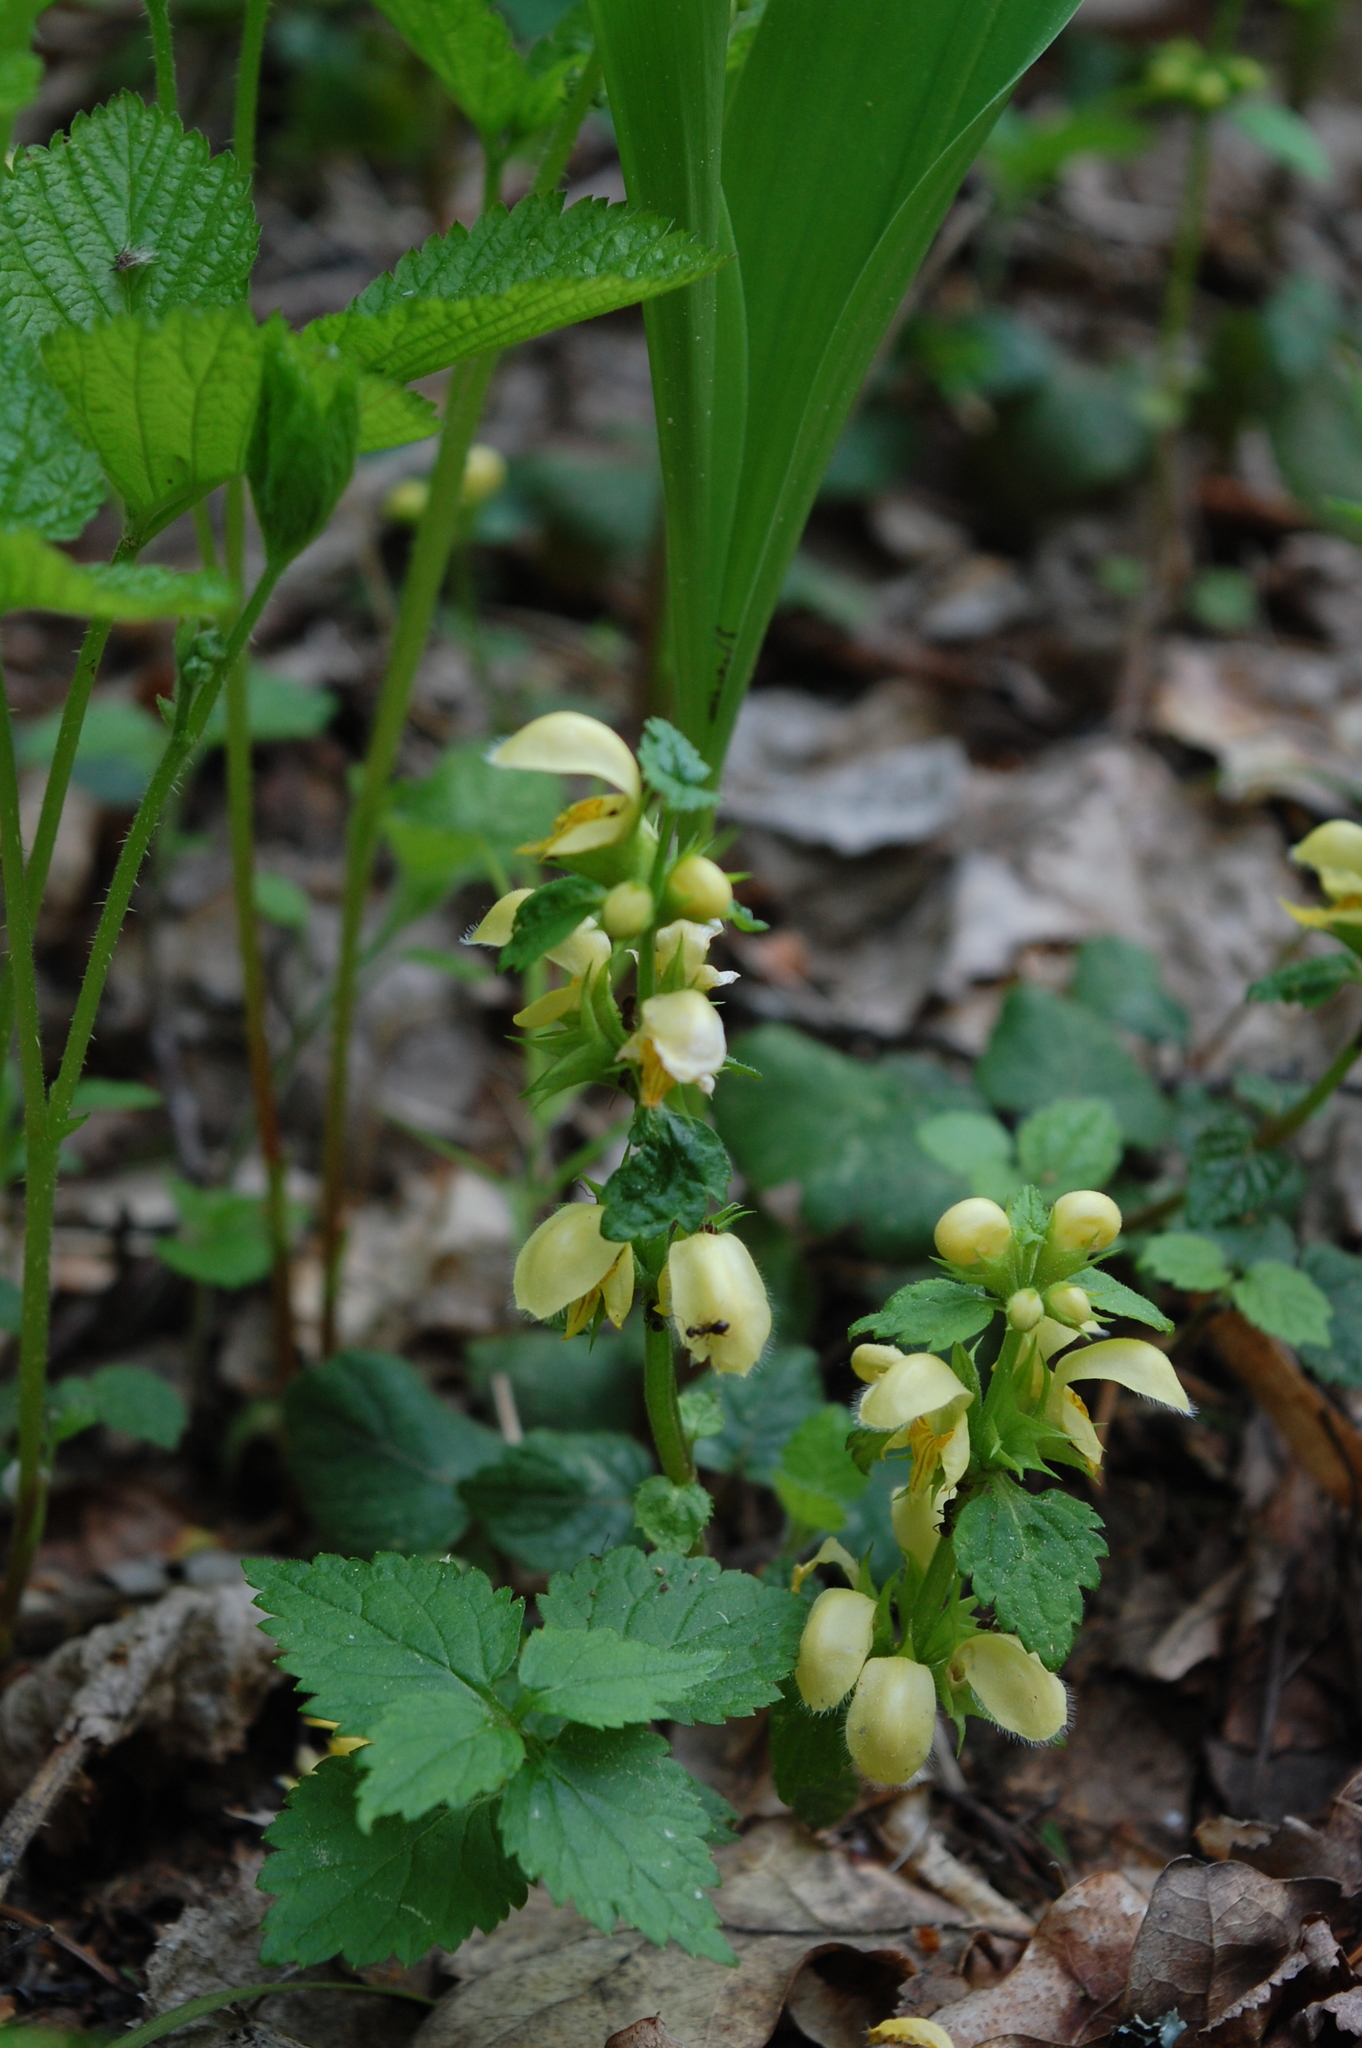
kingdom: Plantae
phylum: Tracheophyta
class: Magnoliopsida
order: Lamiales
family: Lamiaceae
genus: Lamium
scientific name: Lamium galeobdolon
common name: Yellow archangel
